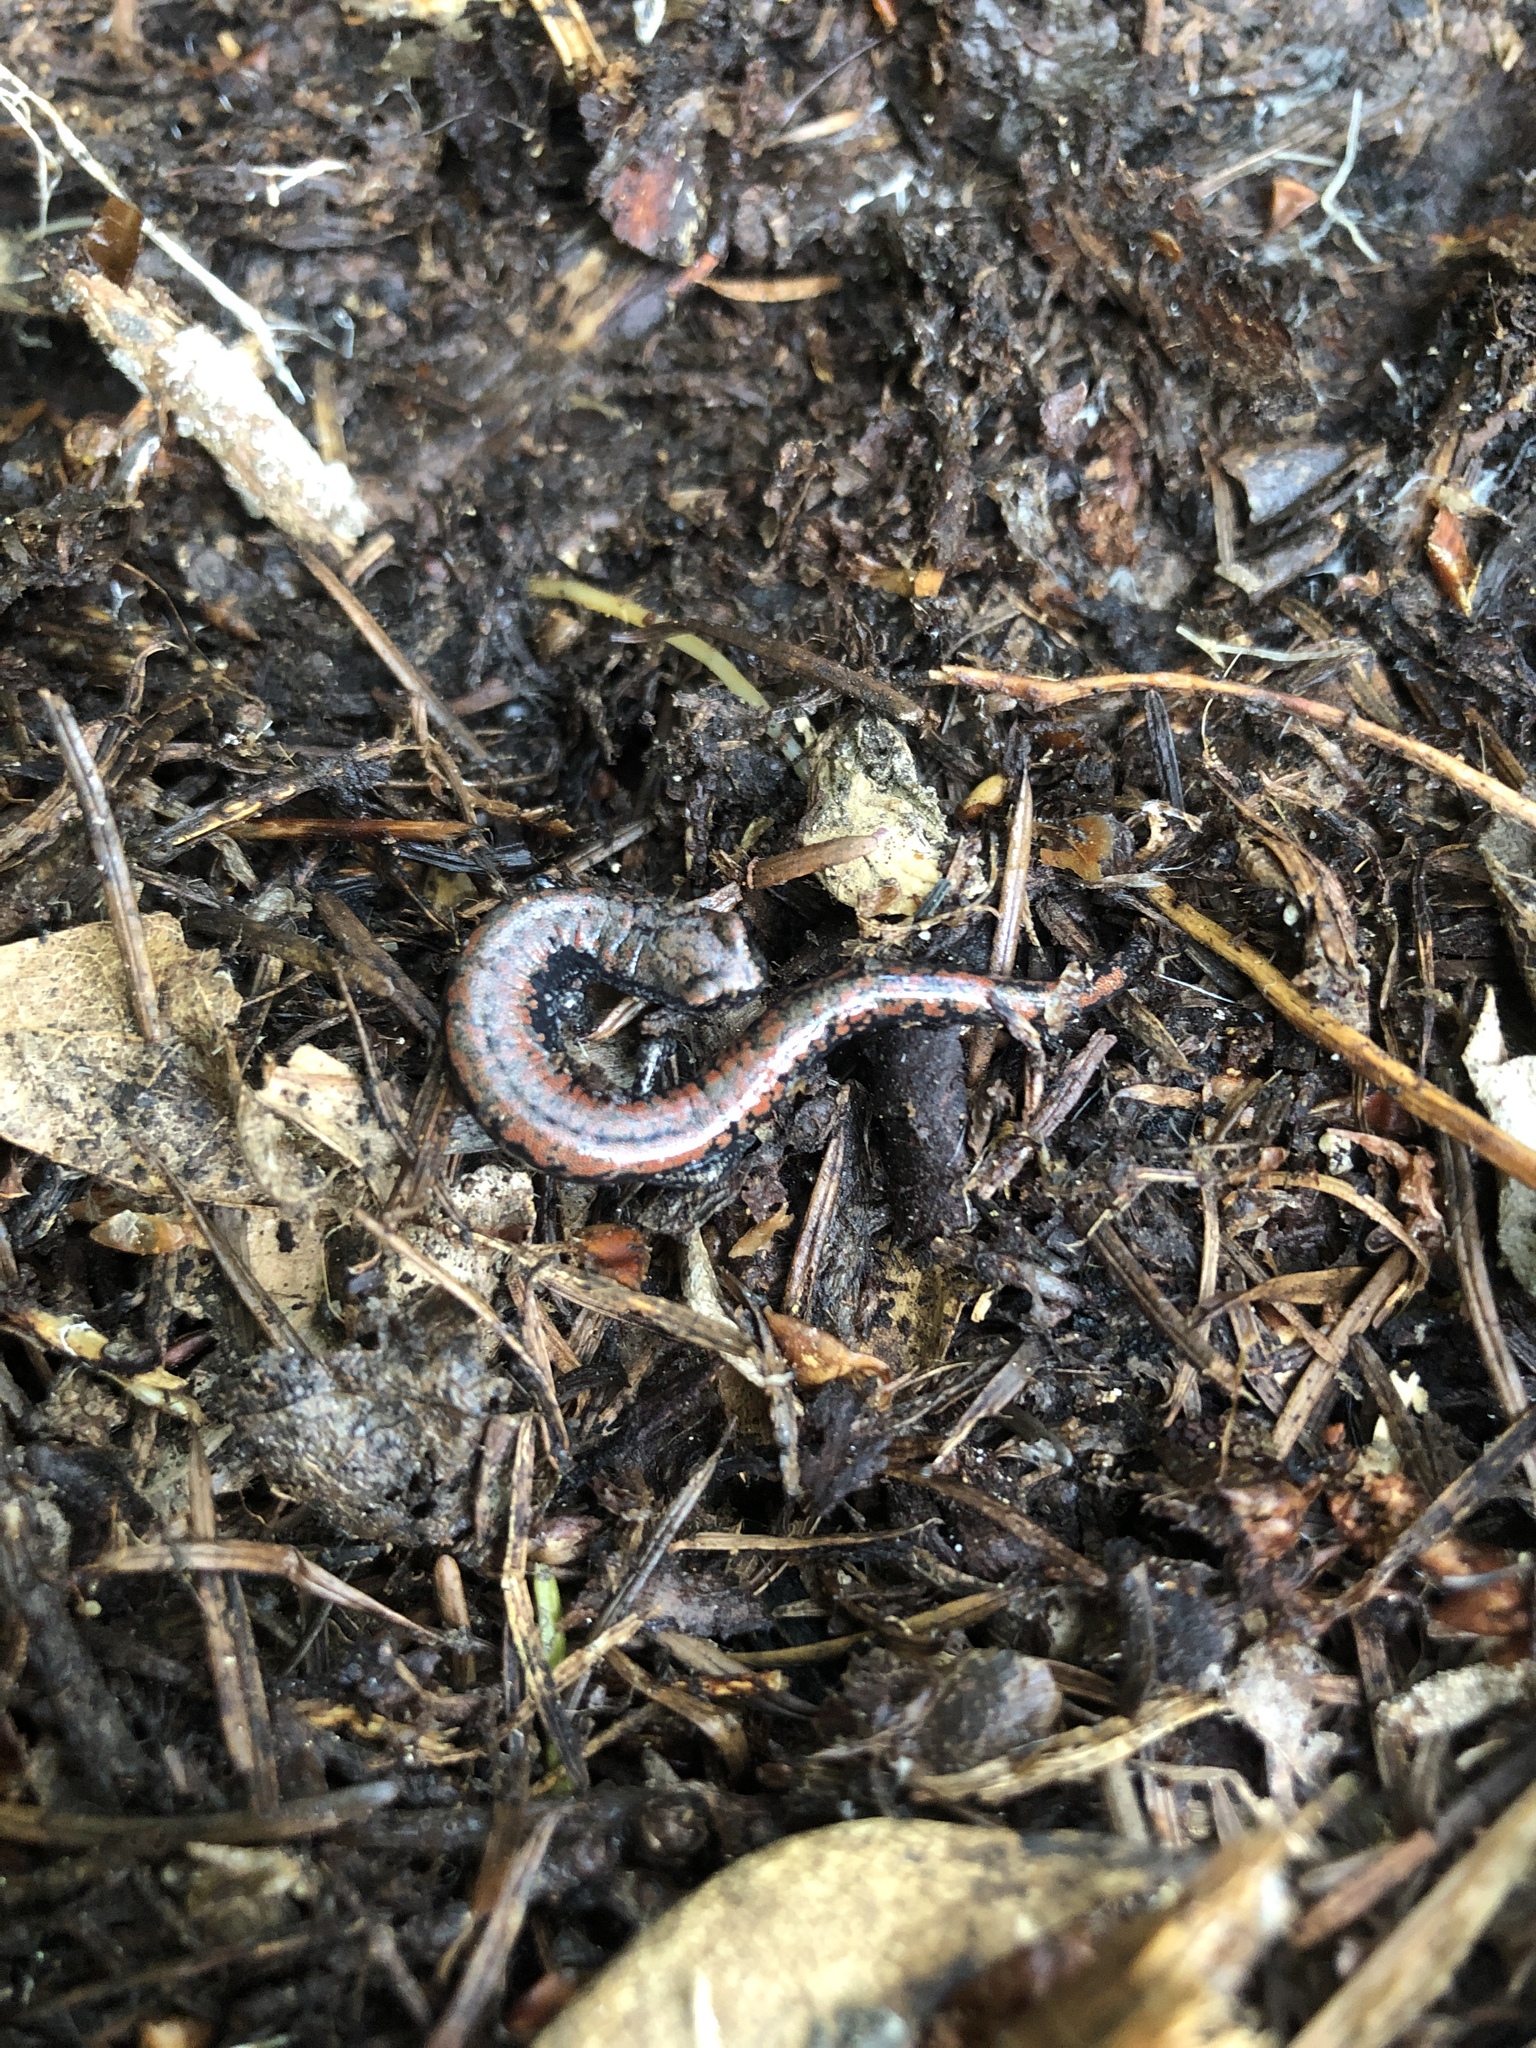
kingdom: Animalia
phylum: Chordata
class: Amphibia
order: Caudata
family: Plethodontidae
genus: Batrachoseps
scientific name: Batrachoseps wrighti
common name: Oregon slender salamander
